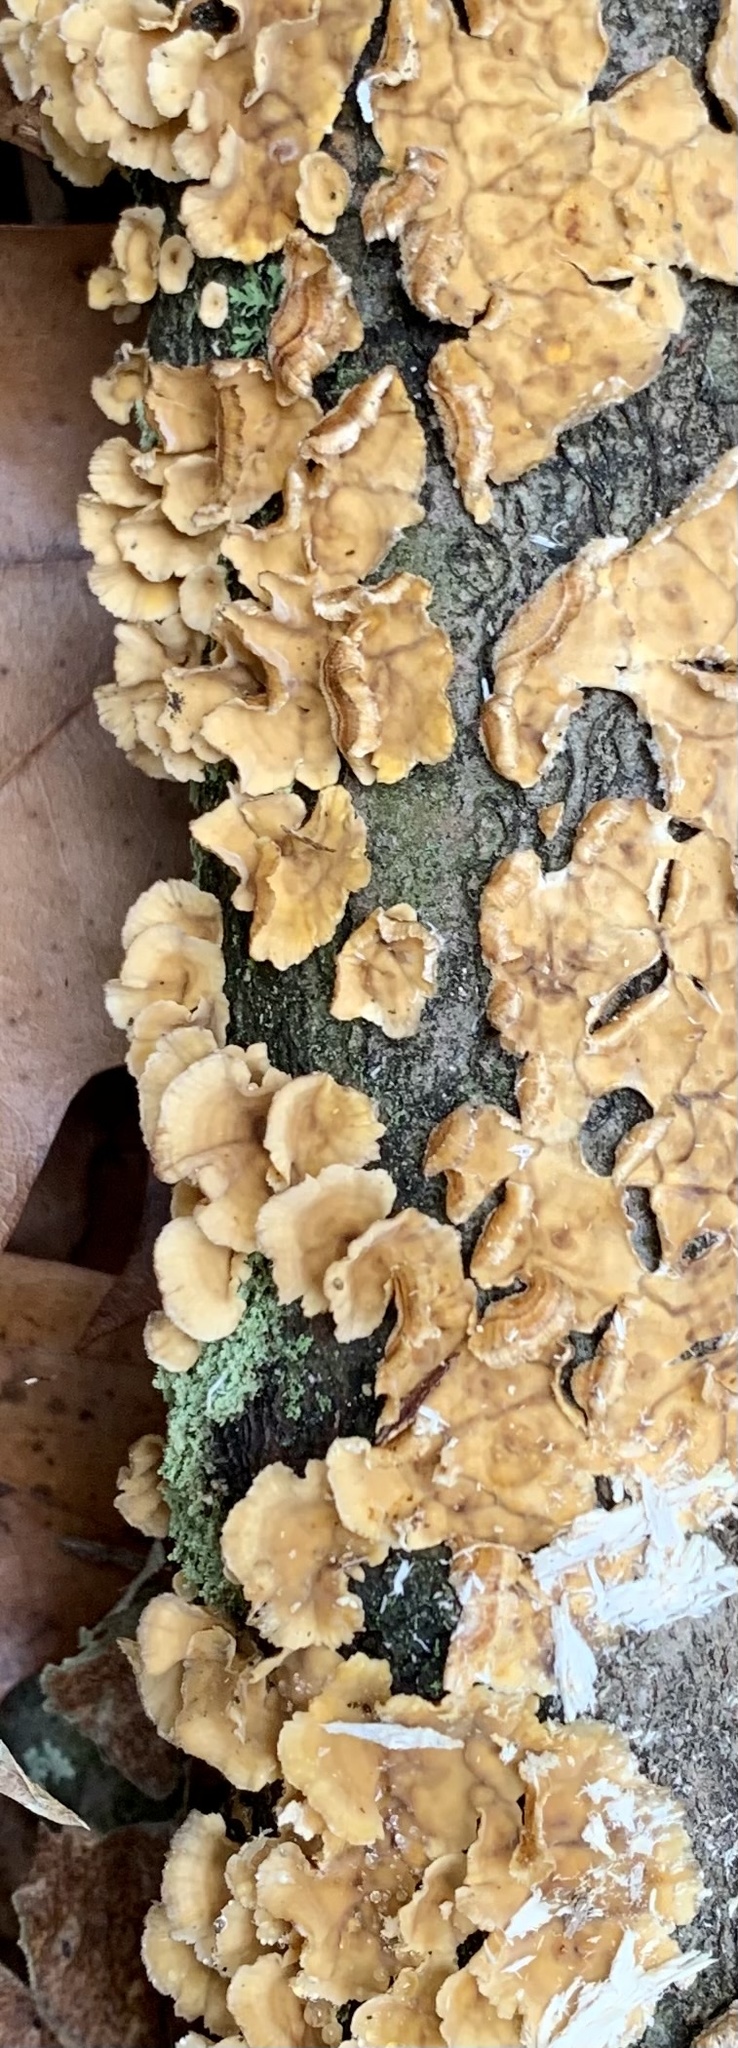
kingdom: Fungi
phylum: Basidiomycota
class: Agaricomycetes
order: Russulales
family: Stereaceae
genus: Stereum
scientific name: Stereum complicatum
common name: Crowded parchment
